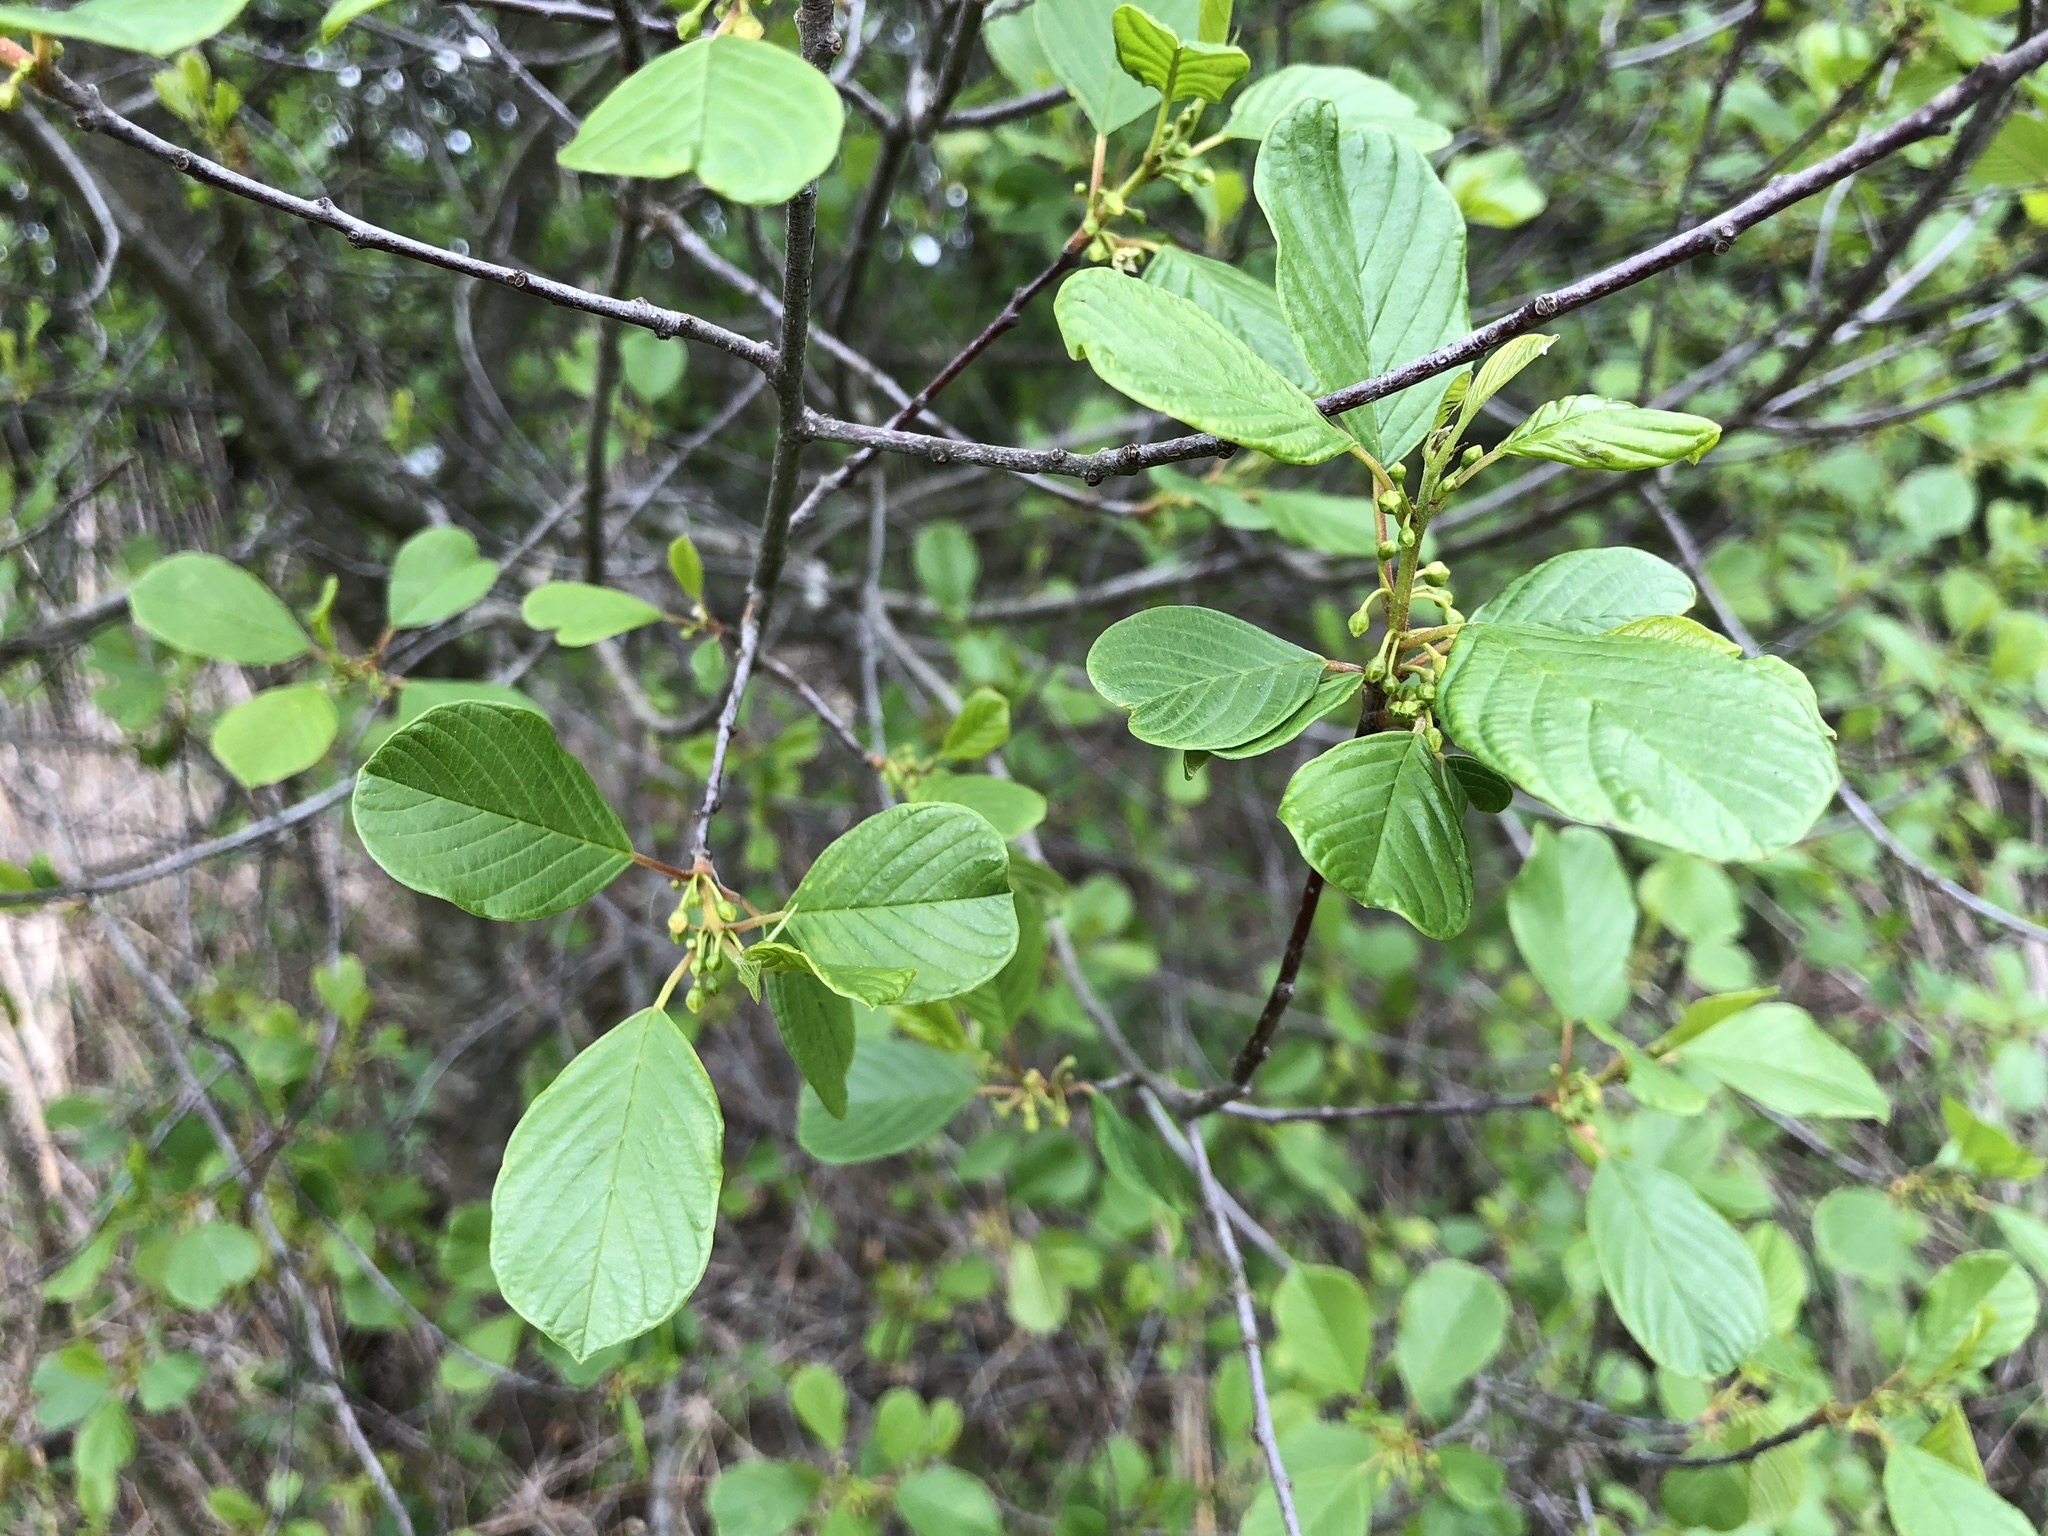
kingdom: Plantae
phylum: Tracheophyta
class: Magnoliopsida
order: Rosales
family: Rhamnaceae
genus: Frangula
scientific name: Frangula alnus
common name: Alder buckthorn
